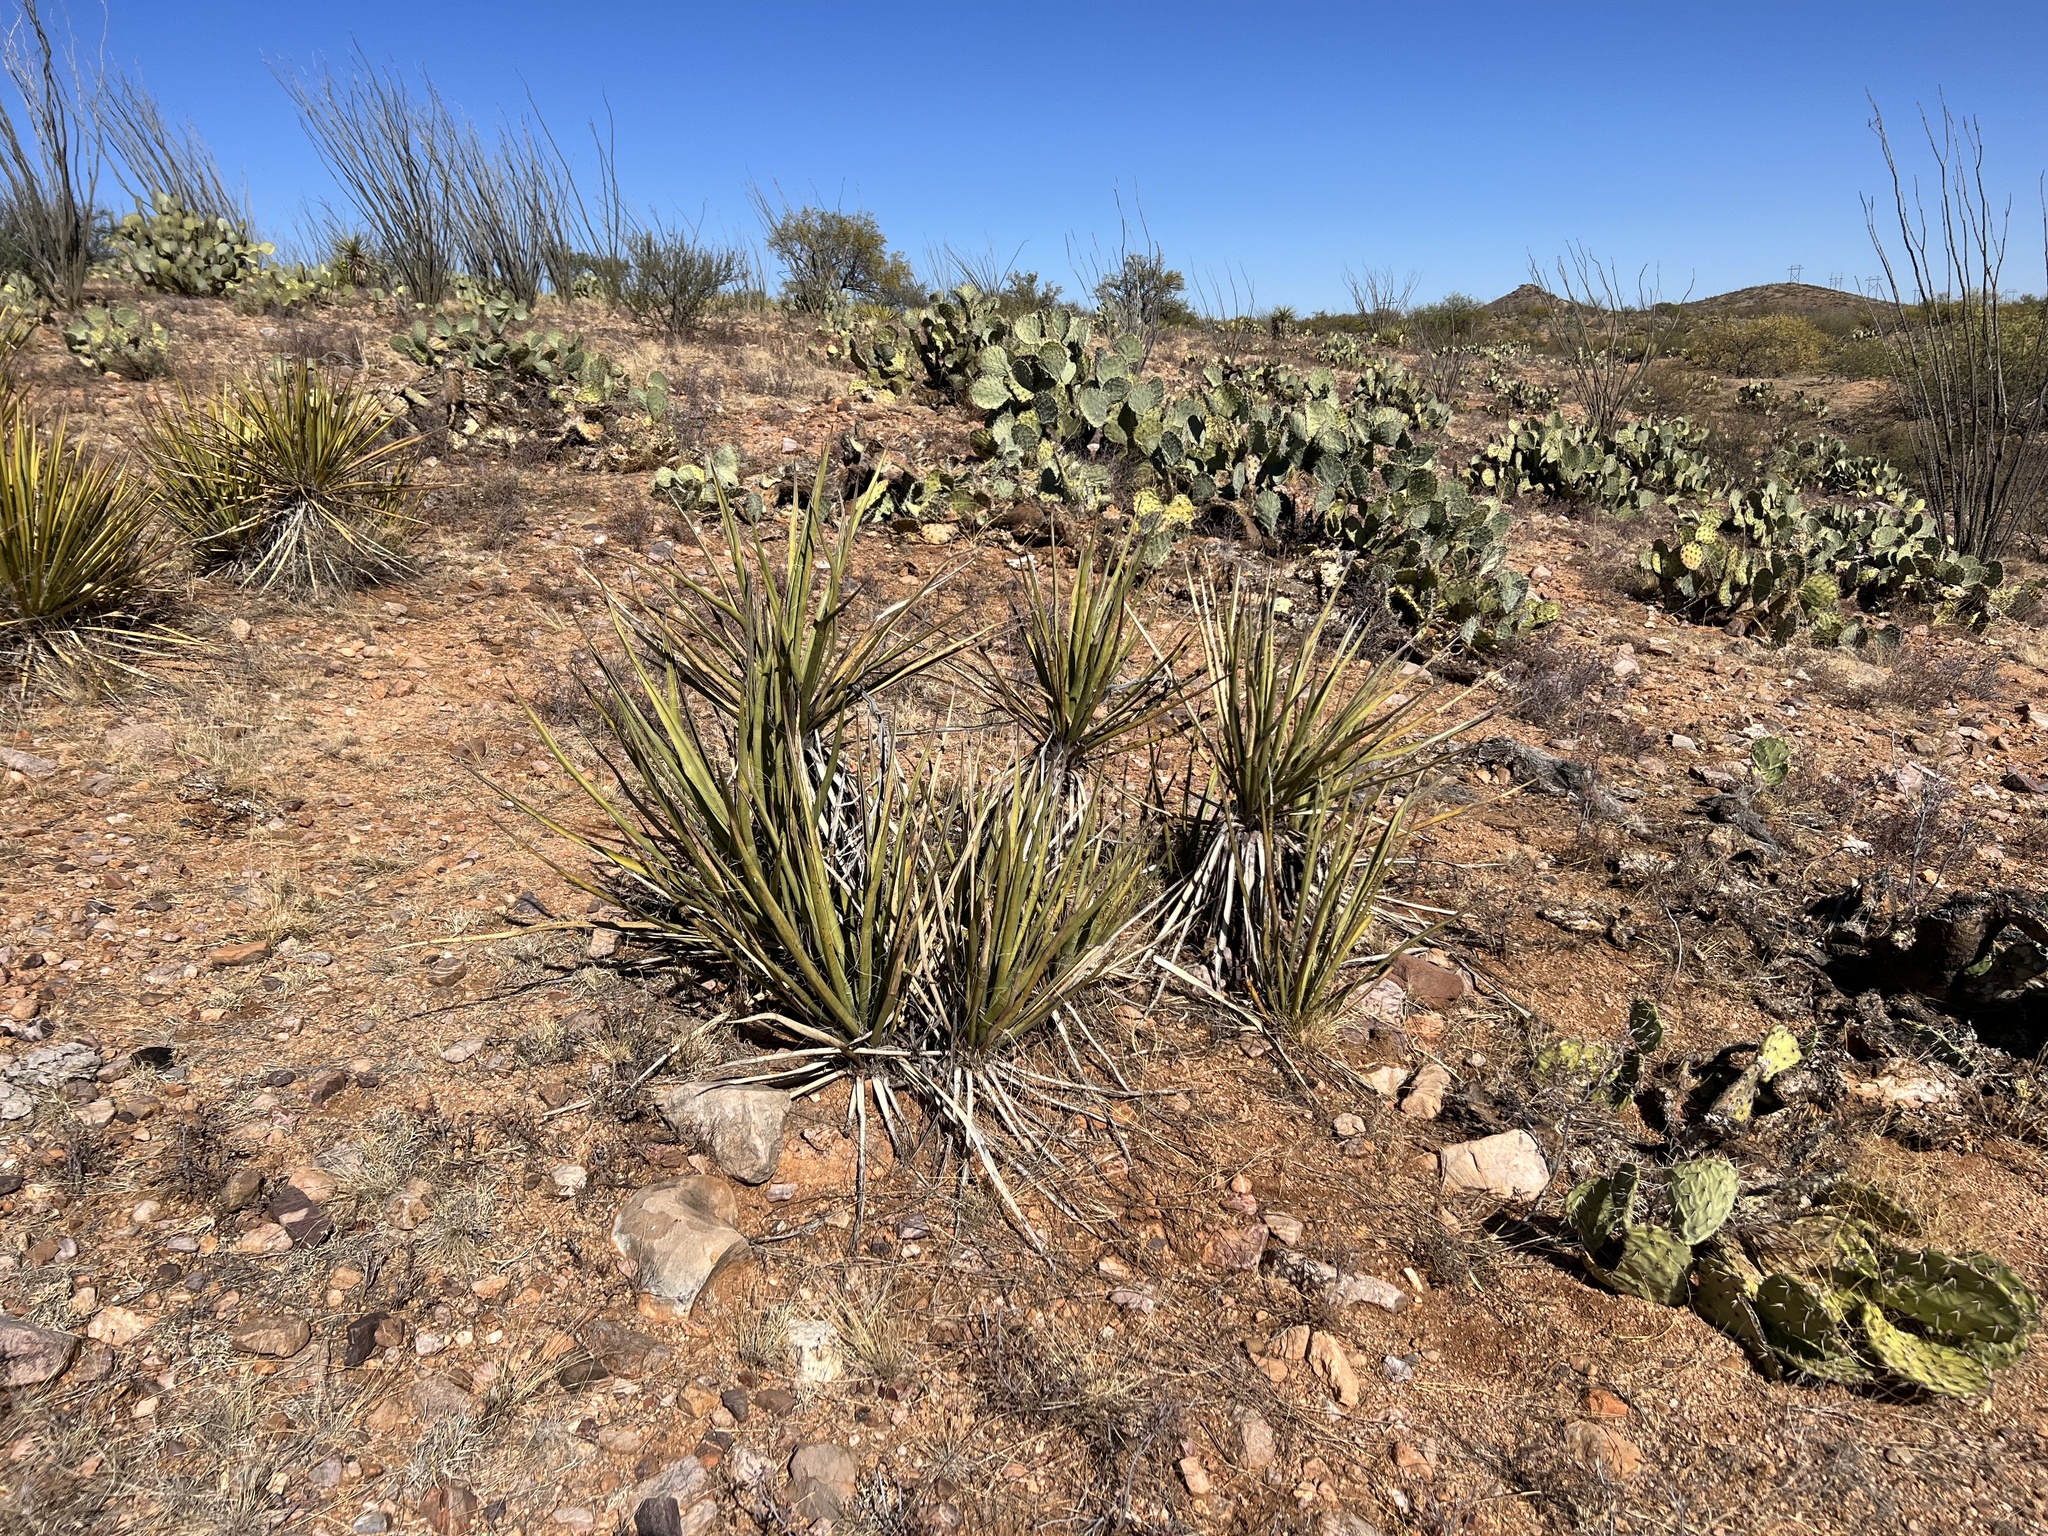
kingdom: Plantae
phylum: Tracheophyta
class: Liliopsida
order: Asparagales
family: Asparagaceae
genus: Yucca
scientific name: Yucca baccata
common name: Banana yucca
